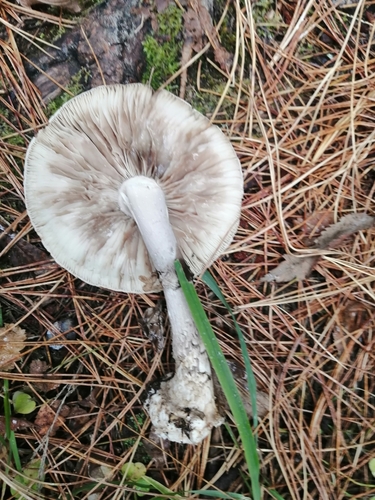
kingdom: Fungi
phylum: Basidiomycota
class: Agaricomycetes
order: Agaricales
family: Amanitaceae
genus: Amanita
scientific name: Amanita porphyria
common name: Grey veiled amanita
